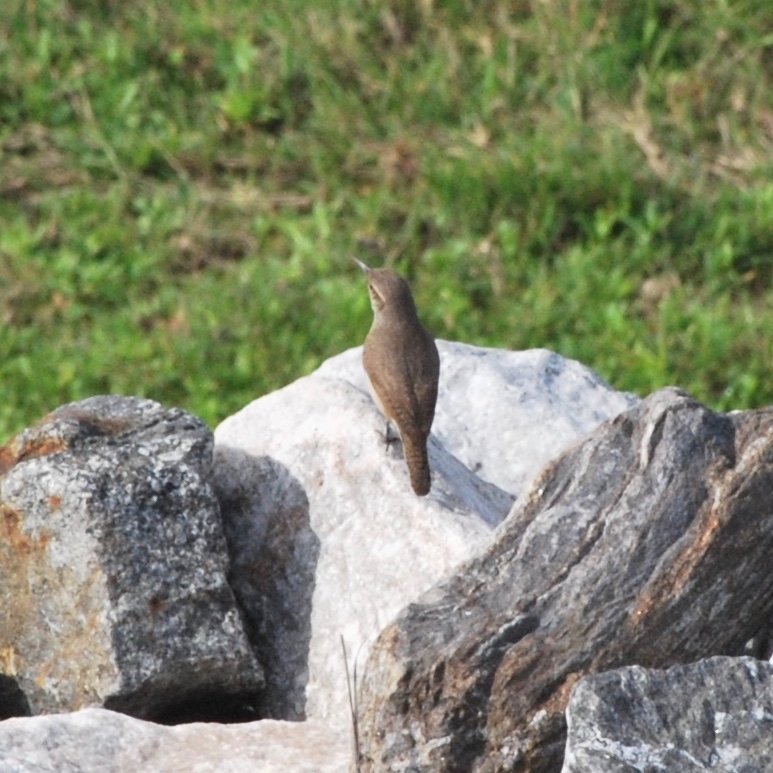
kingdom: Animalia
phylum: Chordata
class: Aves
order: Passeriformes
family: Troglodytidae
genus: Salpinctes
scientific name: Salpinctes obsoletus
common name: Rock wren
